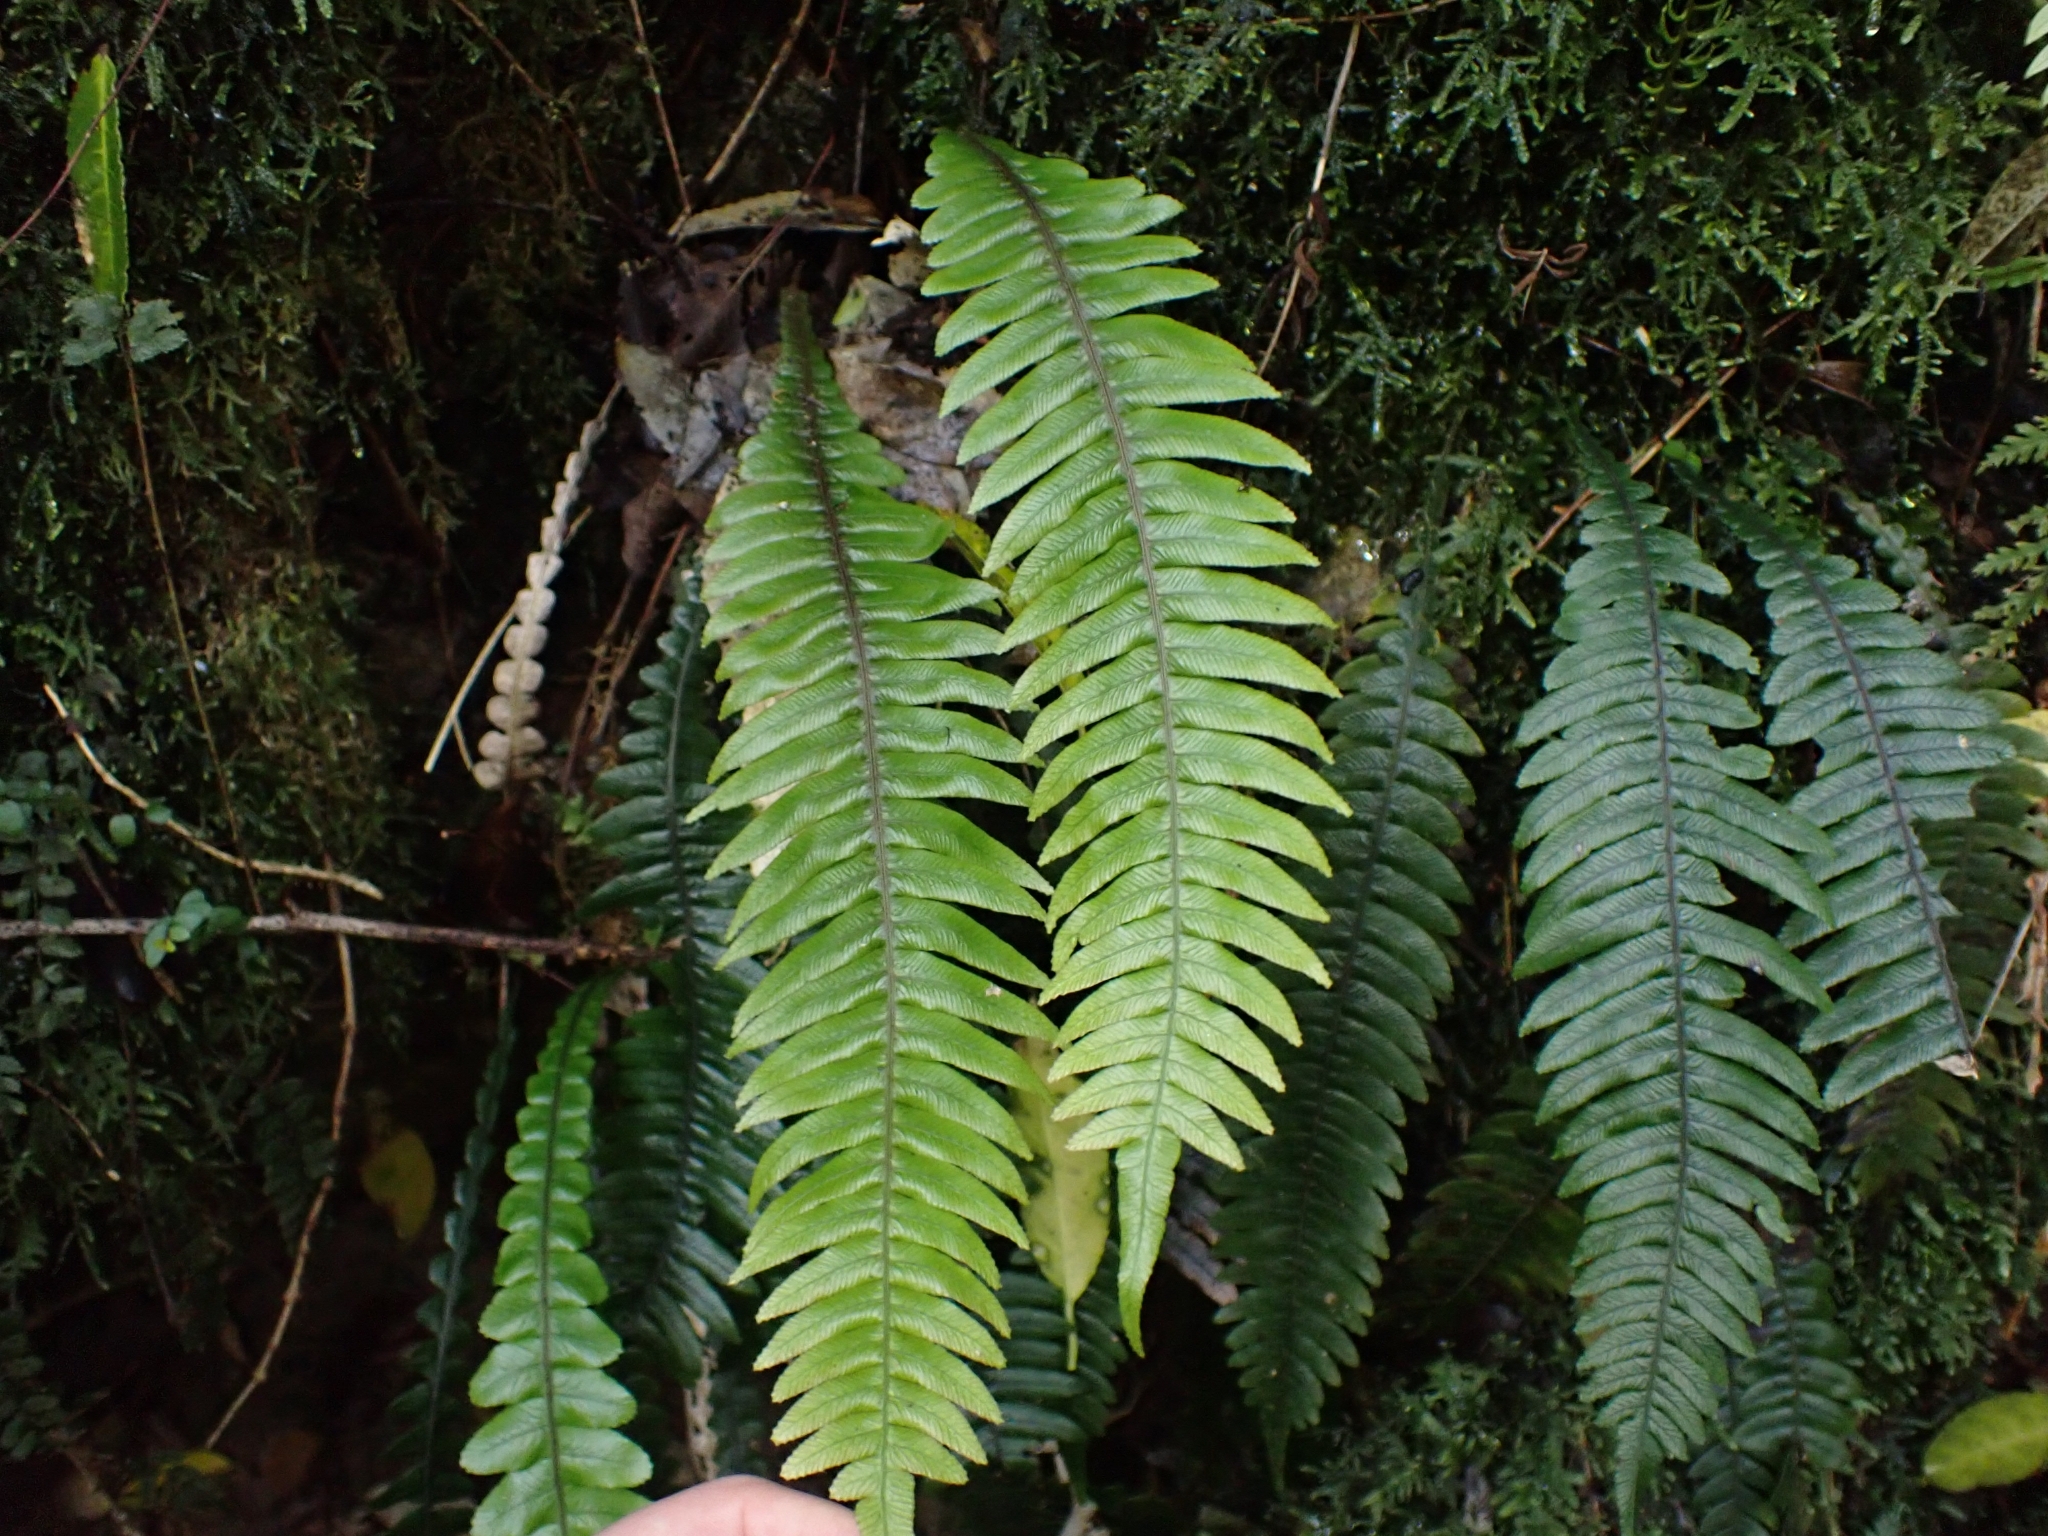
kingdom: Plantae
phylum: Tracheophyta
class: Polypodiopsida
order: Polypodiales
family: Blechnaceae
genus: Austroblechnum
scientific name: Austroblechnum lanceolatum
